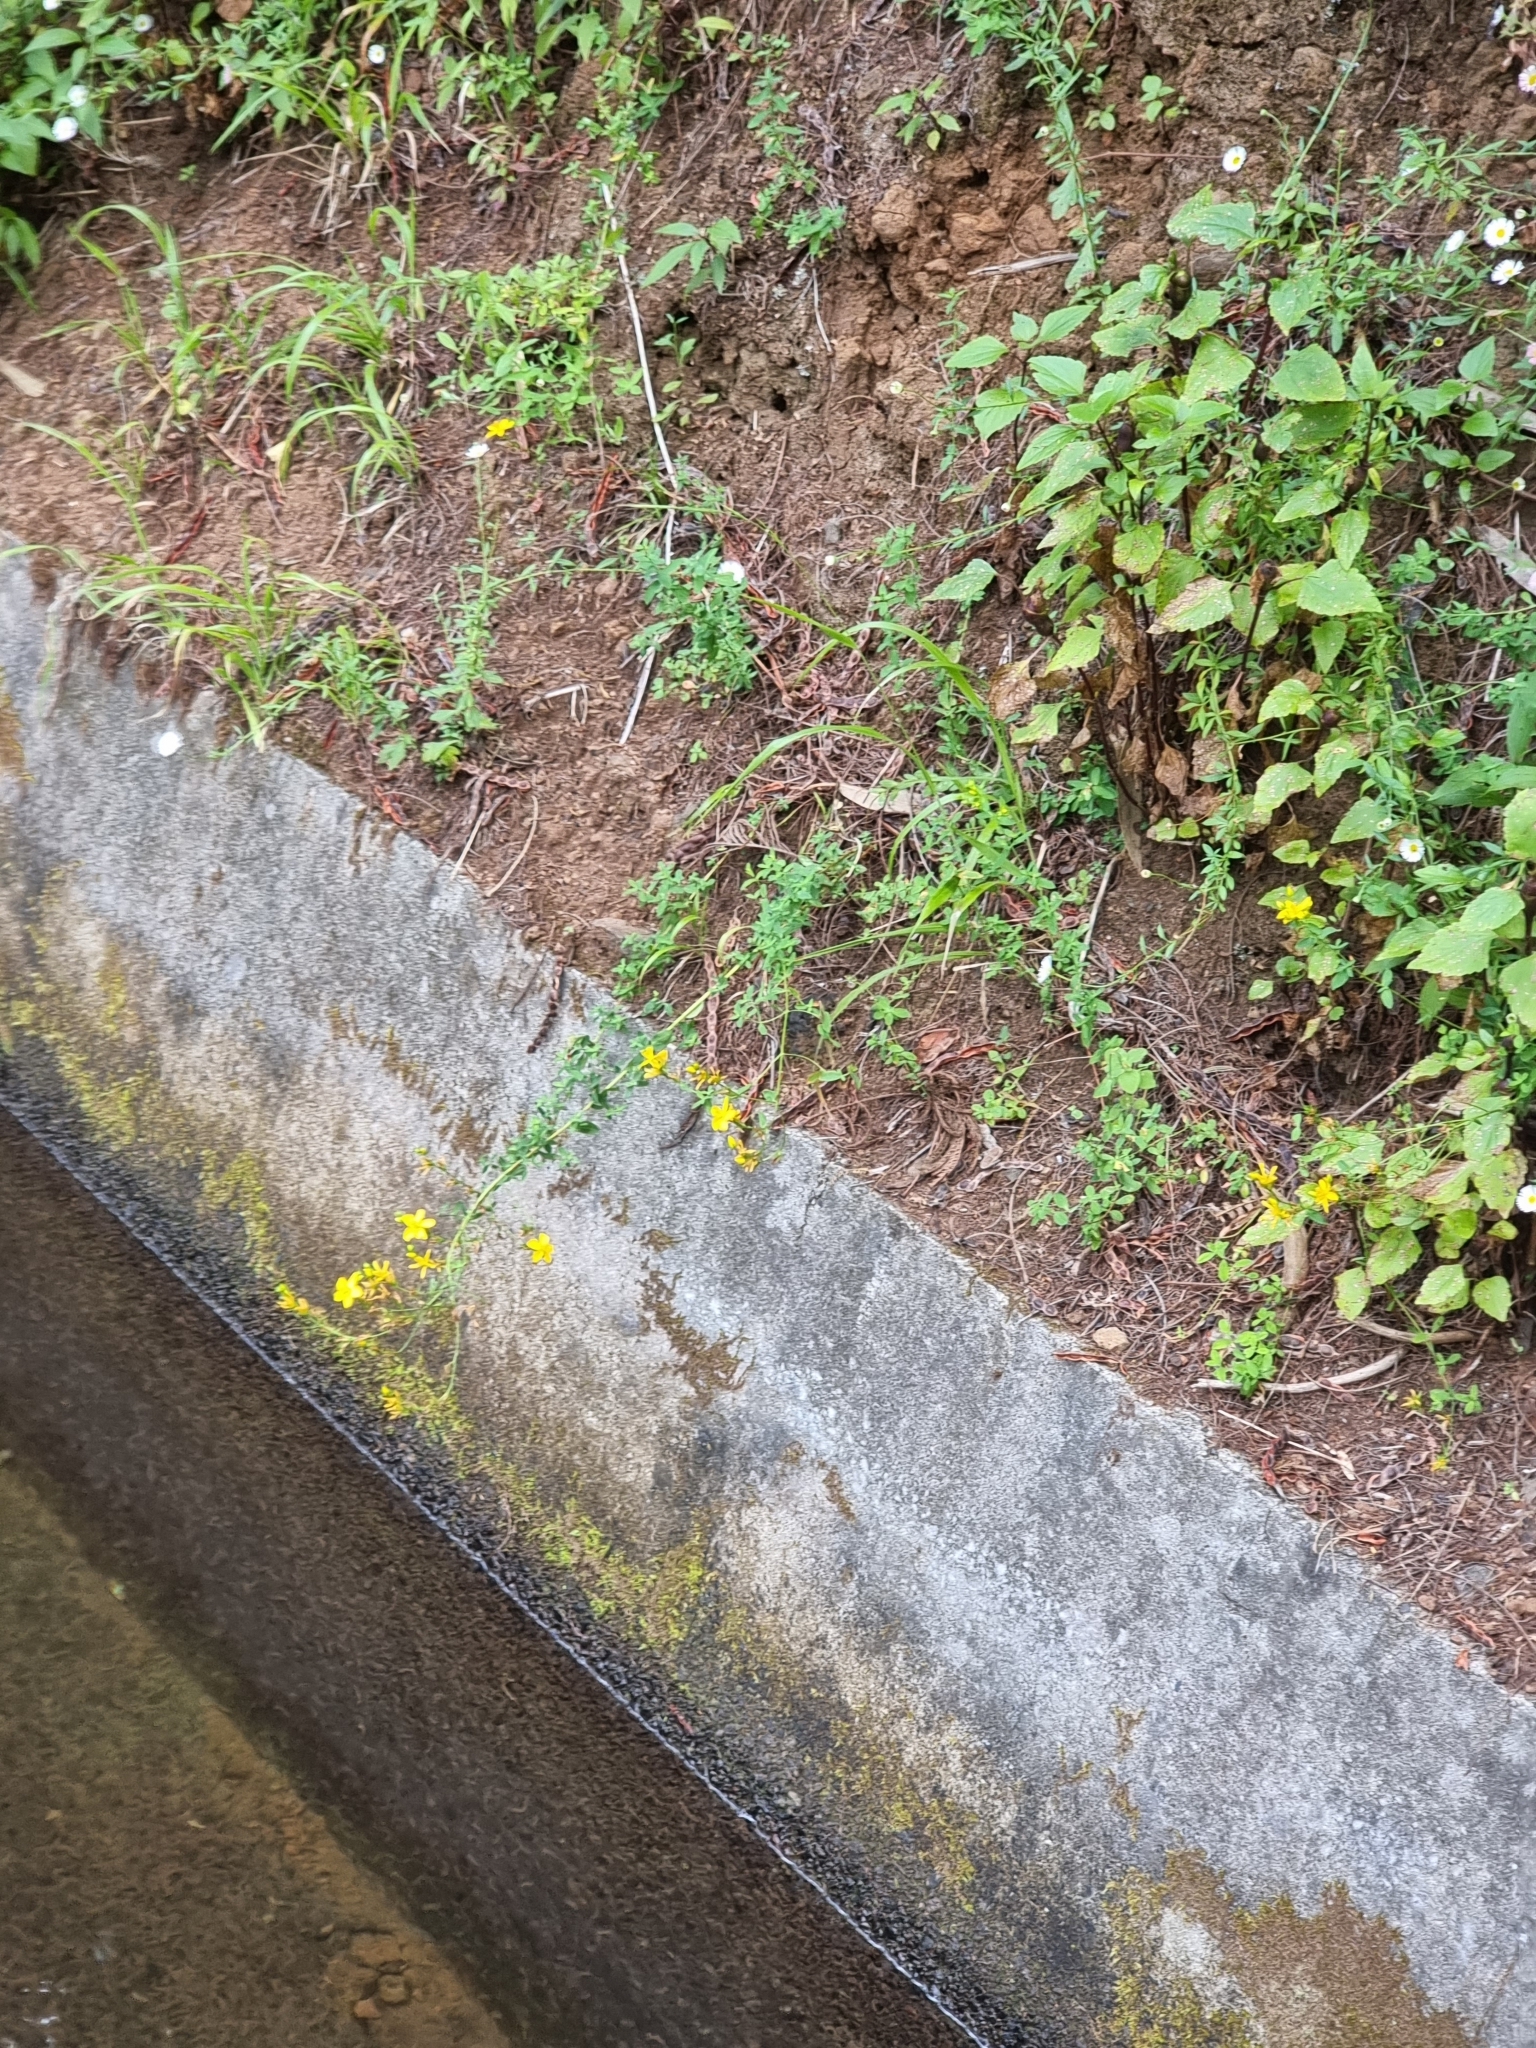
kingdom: Plantae
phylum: Tracheophyta
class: Magnoliopsida
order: Malpighiales
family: Hypericaceae
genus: Hypericum
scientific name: Hypericum perforatum
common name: Common st. johnswort
